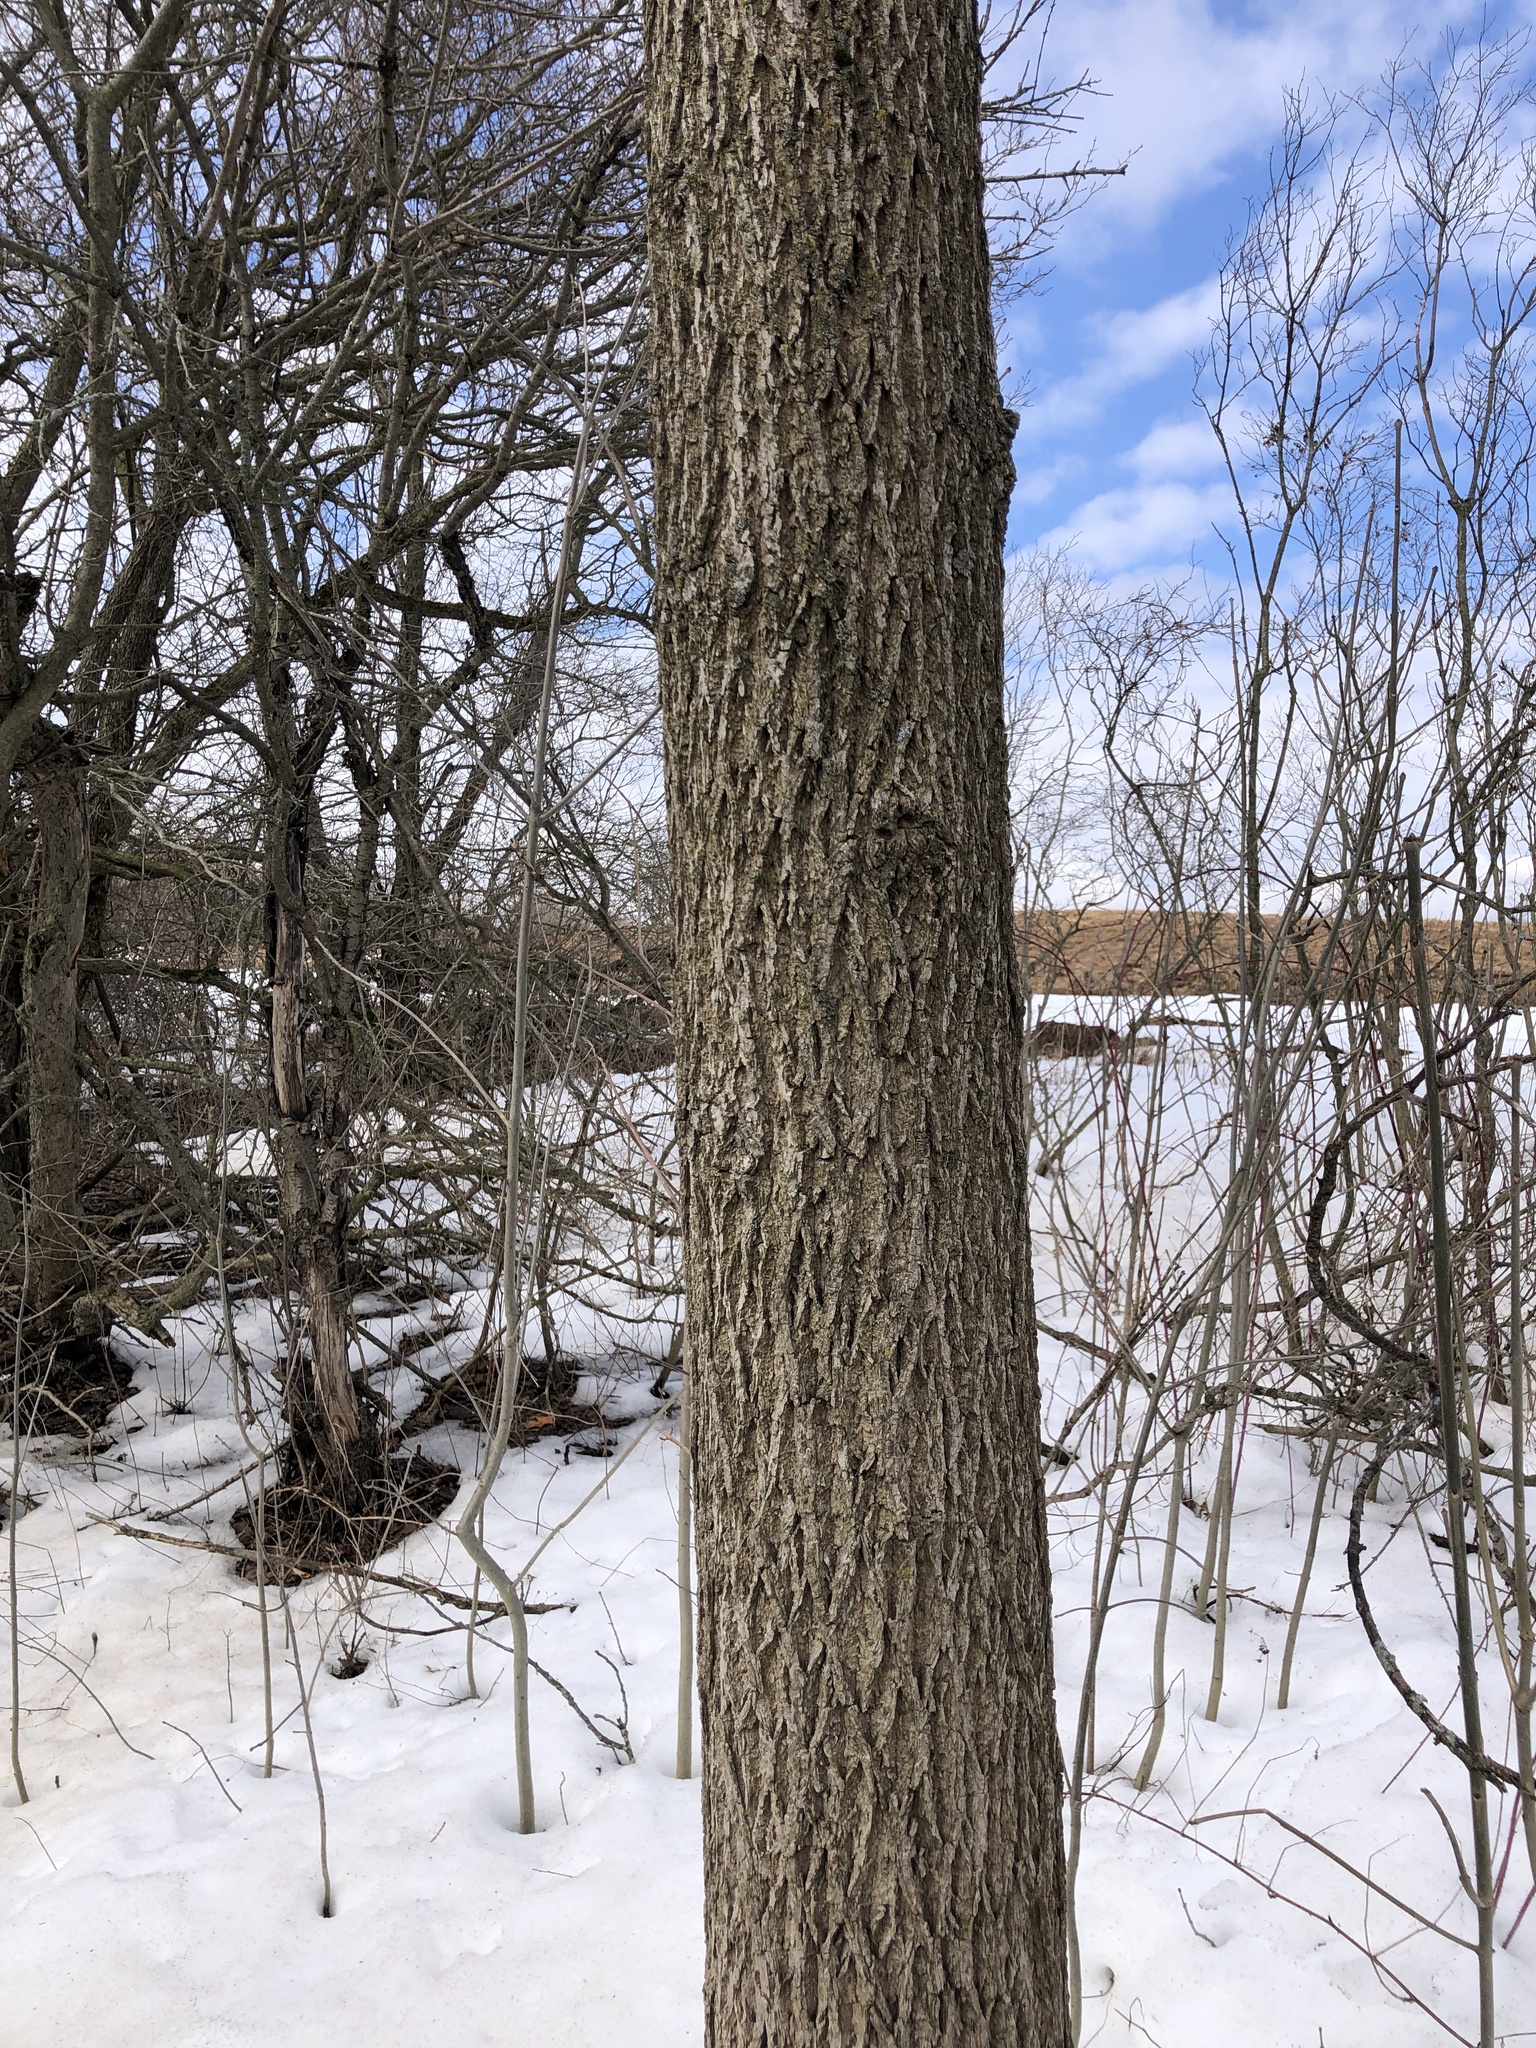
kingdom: Plantae
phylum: Tracheophyta
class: Magnoliopsida
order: Fagales
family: Juglandaceae
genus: Juglans
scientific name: Juglans nigra
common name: Black walnut
